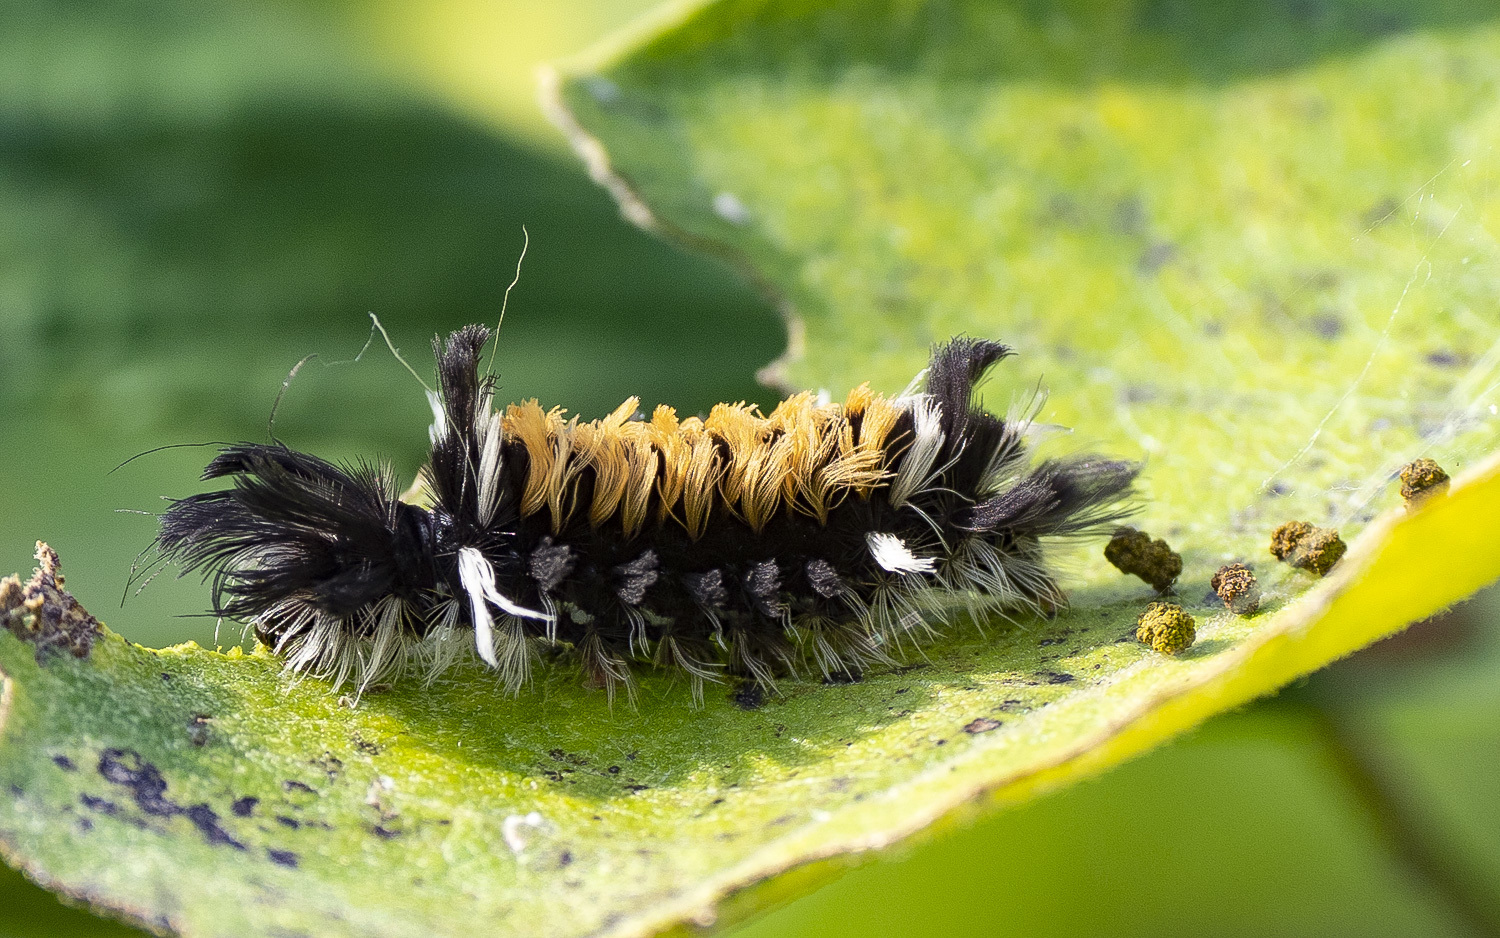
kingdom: Animalia
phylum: Arthropoda
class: Insecta
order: Lepidoptera
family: Erebidae
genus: Euchaetes
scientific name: Euchaetes egle
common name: Milkweed tussock moth
